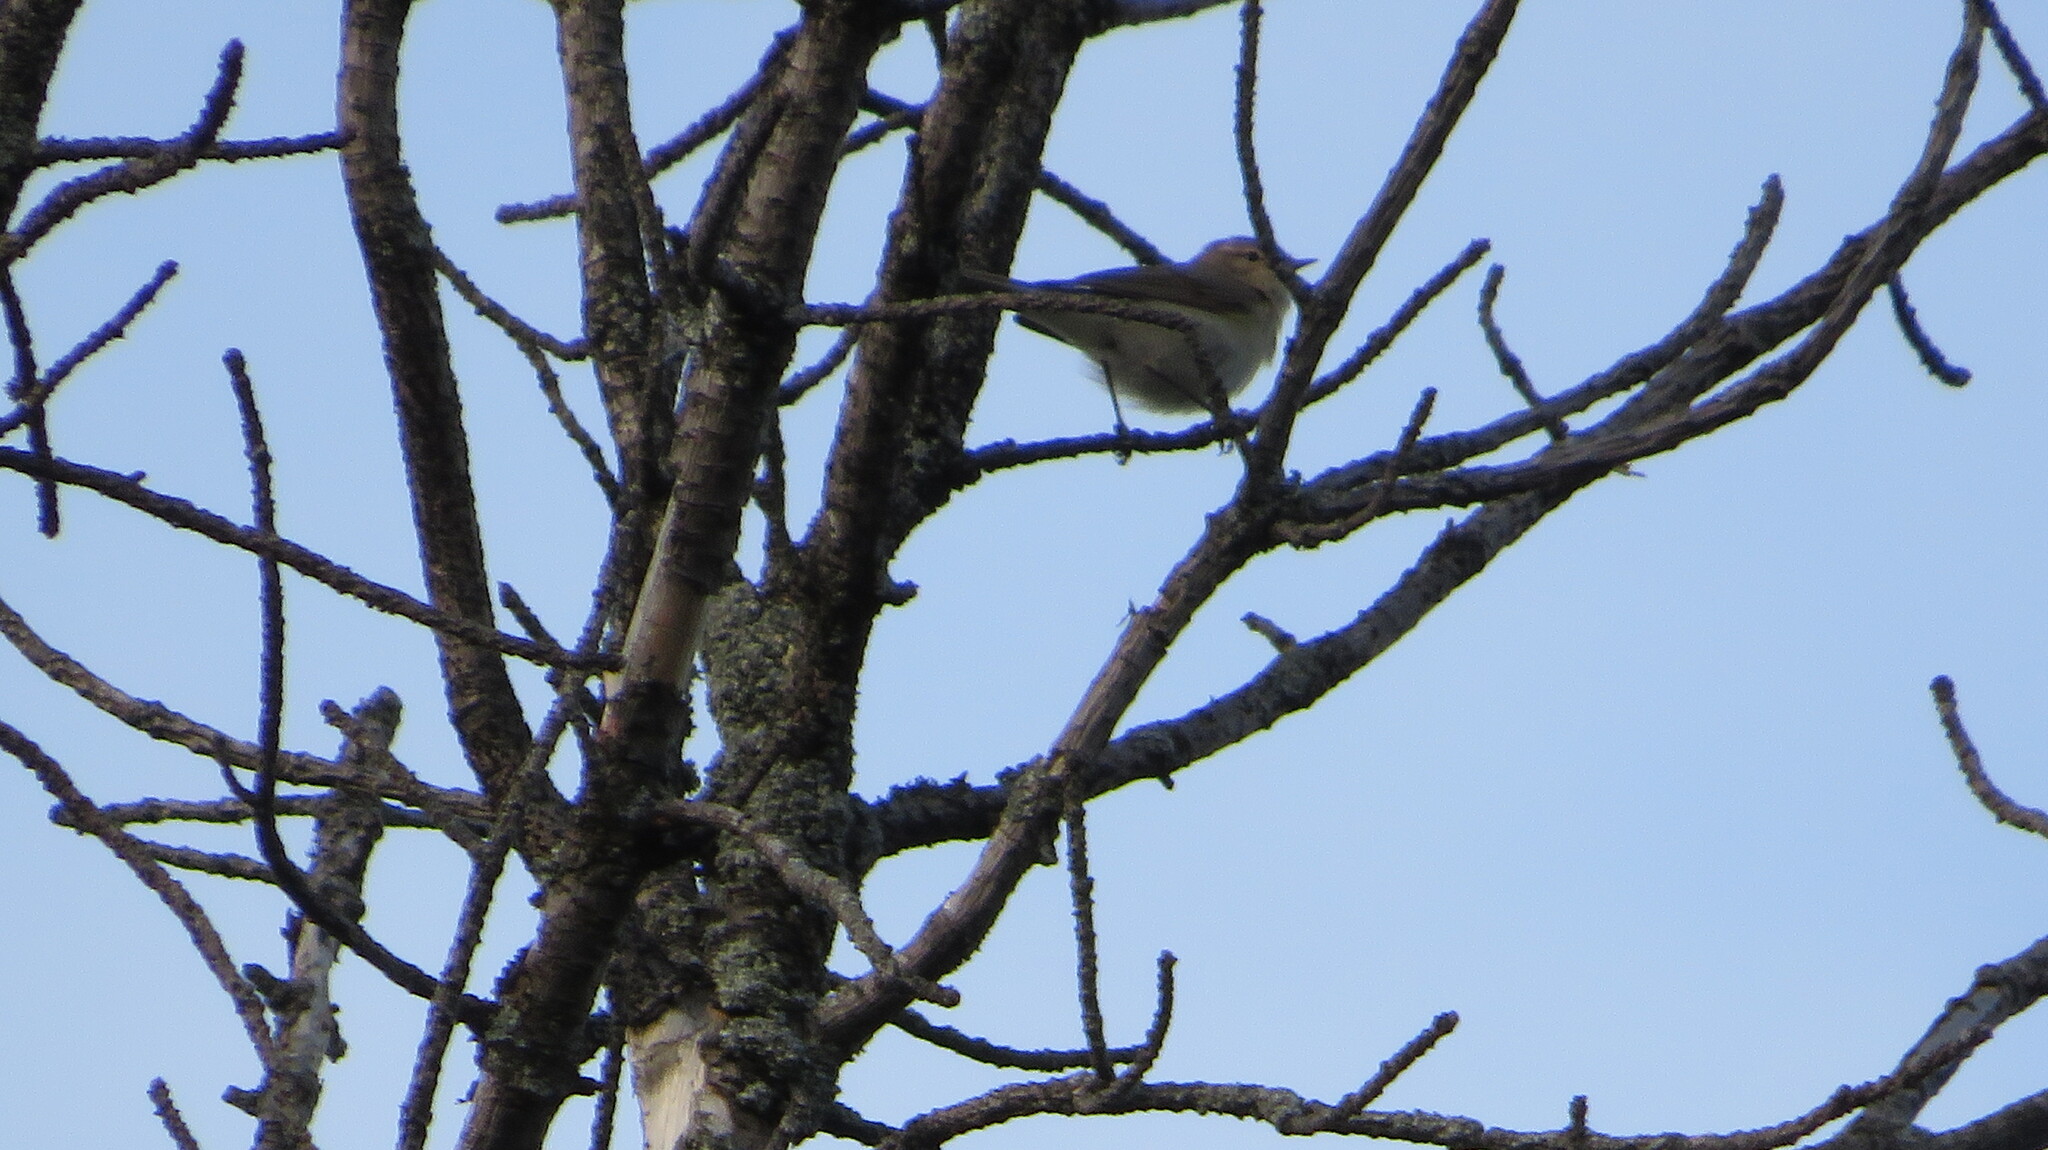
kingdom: Animalia
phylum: Chordata
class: Aves
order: Passeriformes
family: Phylloscopidae
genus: Phylloscopus
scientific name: Phylloscopus collybita
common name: Common chiffchaff
